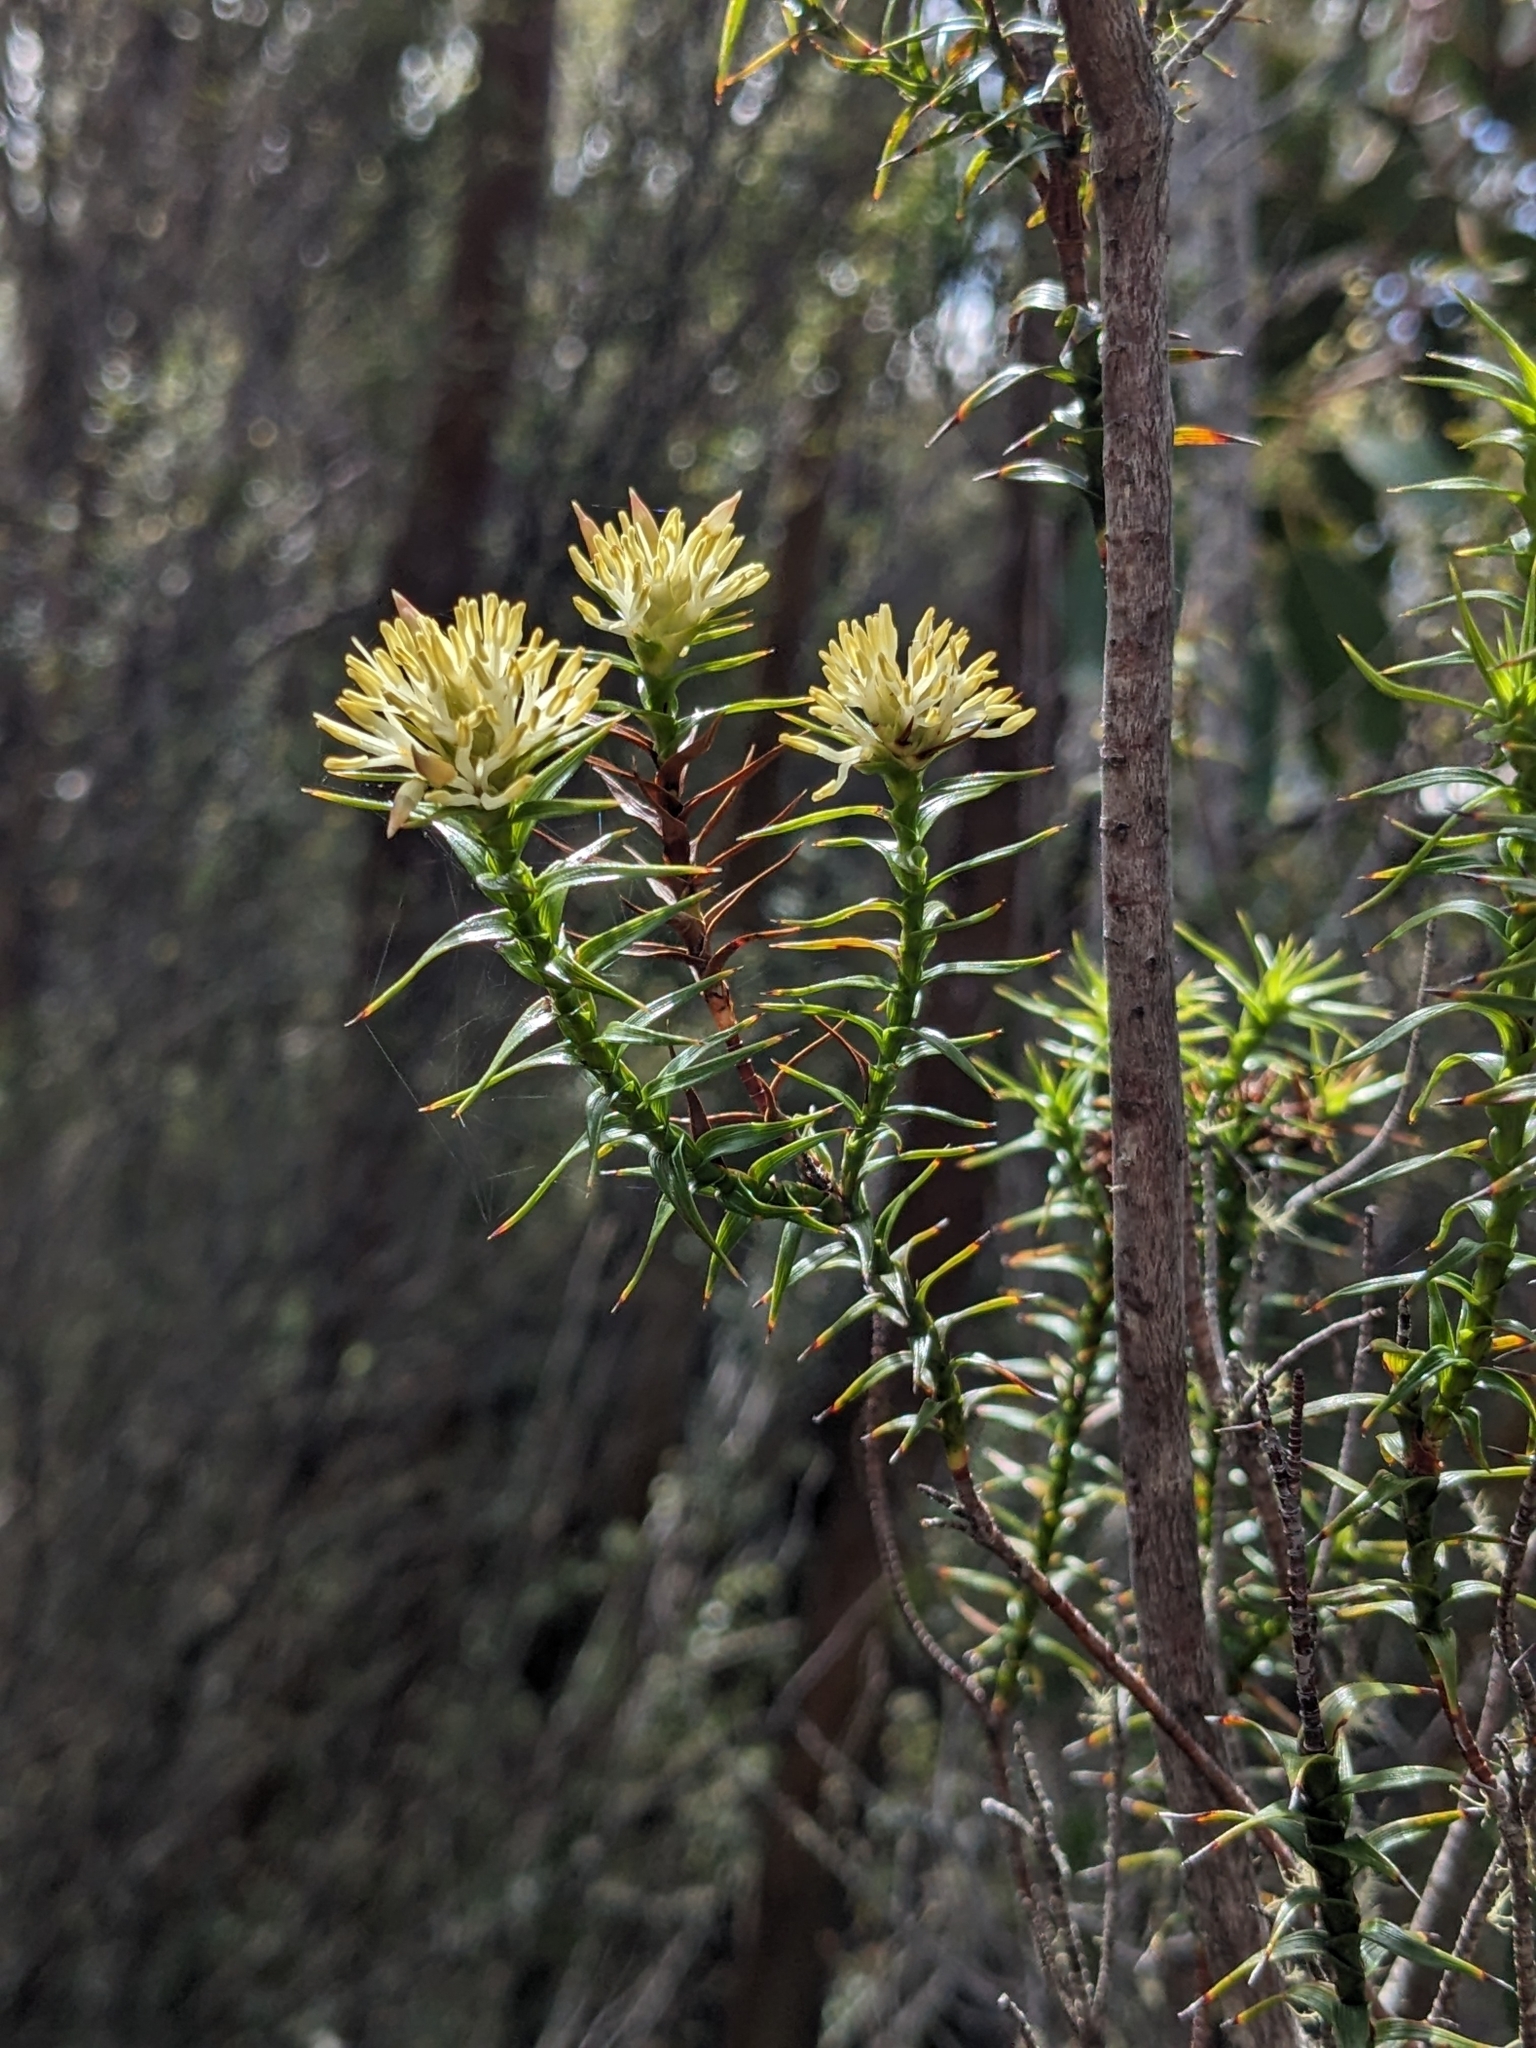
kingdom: Plantae
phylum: Tracheophyta
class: Magnoliopsida
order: Ericales
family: Ericaceae
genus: Dracophyllum
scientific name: Dracophyllum procerum
